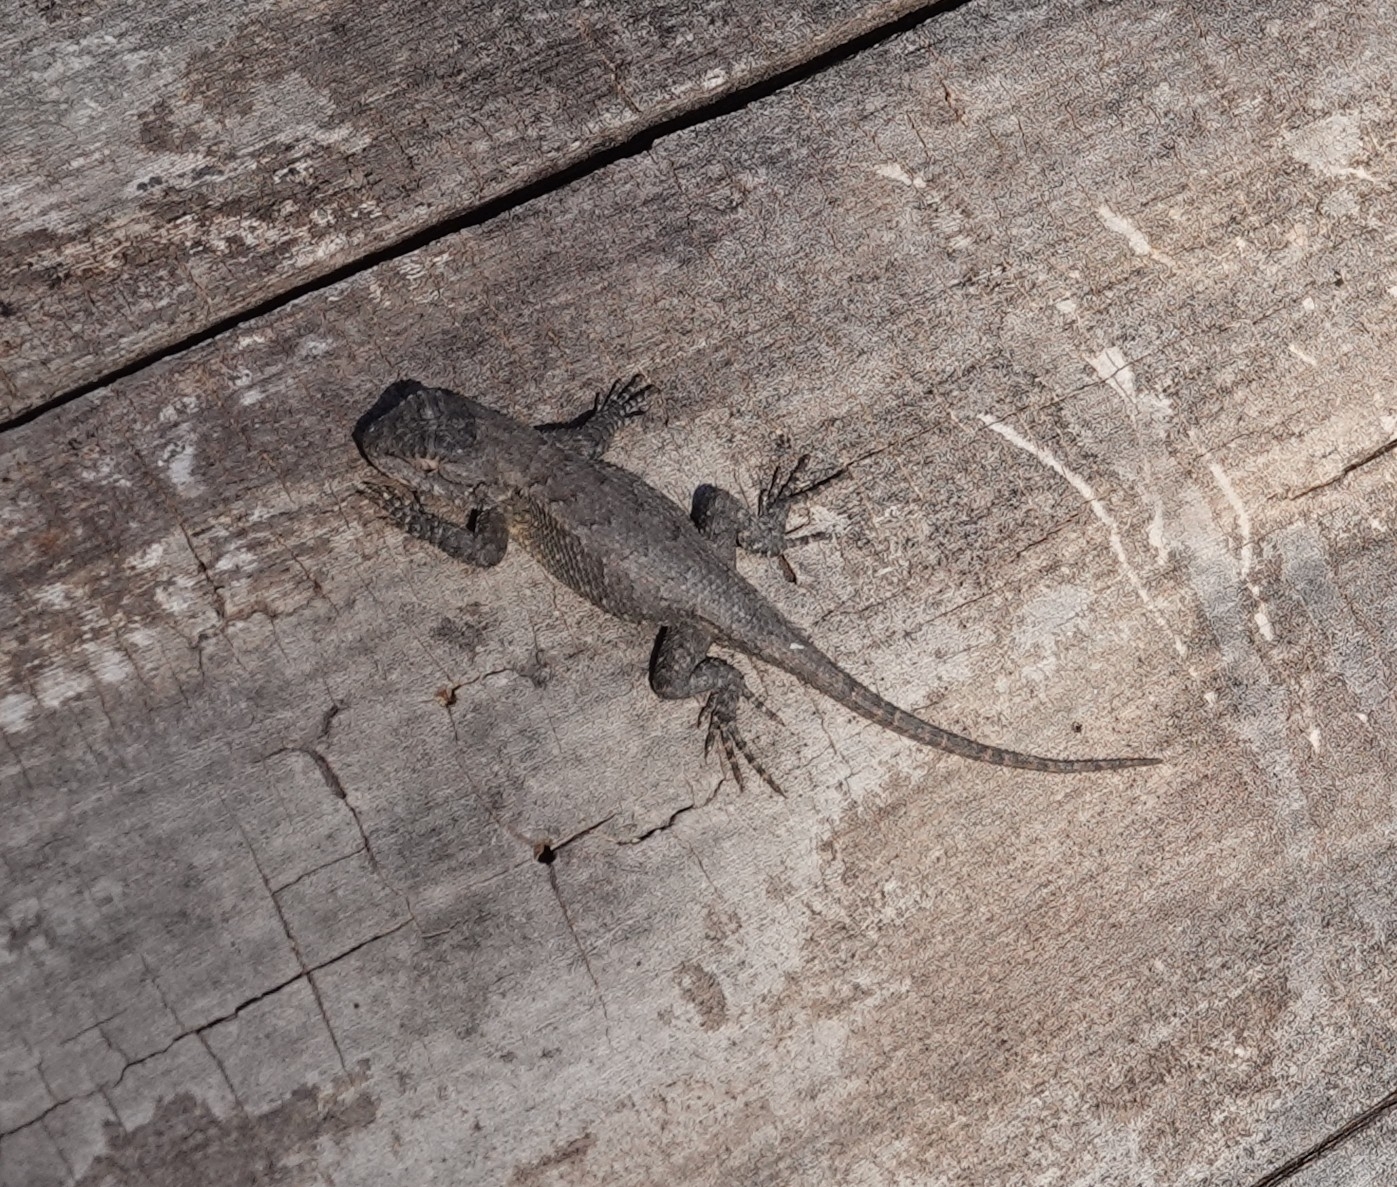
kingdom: Animalia
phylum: Chordata
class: Squamata
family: Phrynosomatidae
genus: Sceloporus
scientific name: Sceloporus consobrinus
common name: Southern prairie lizard
